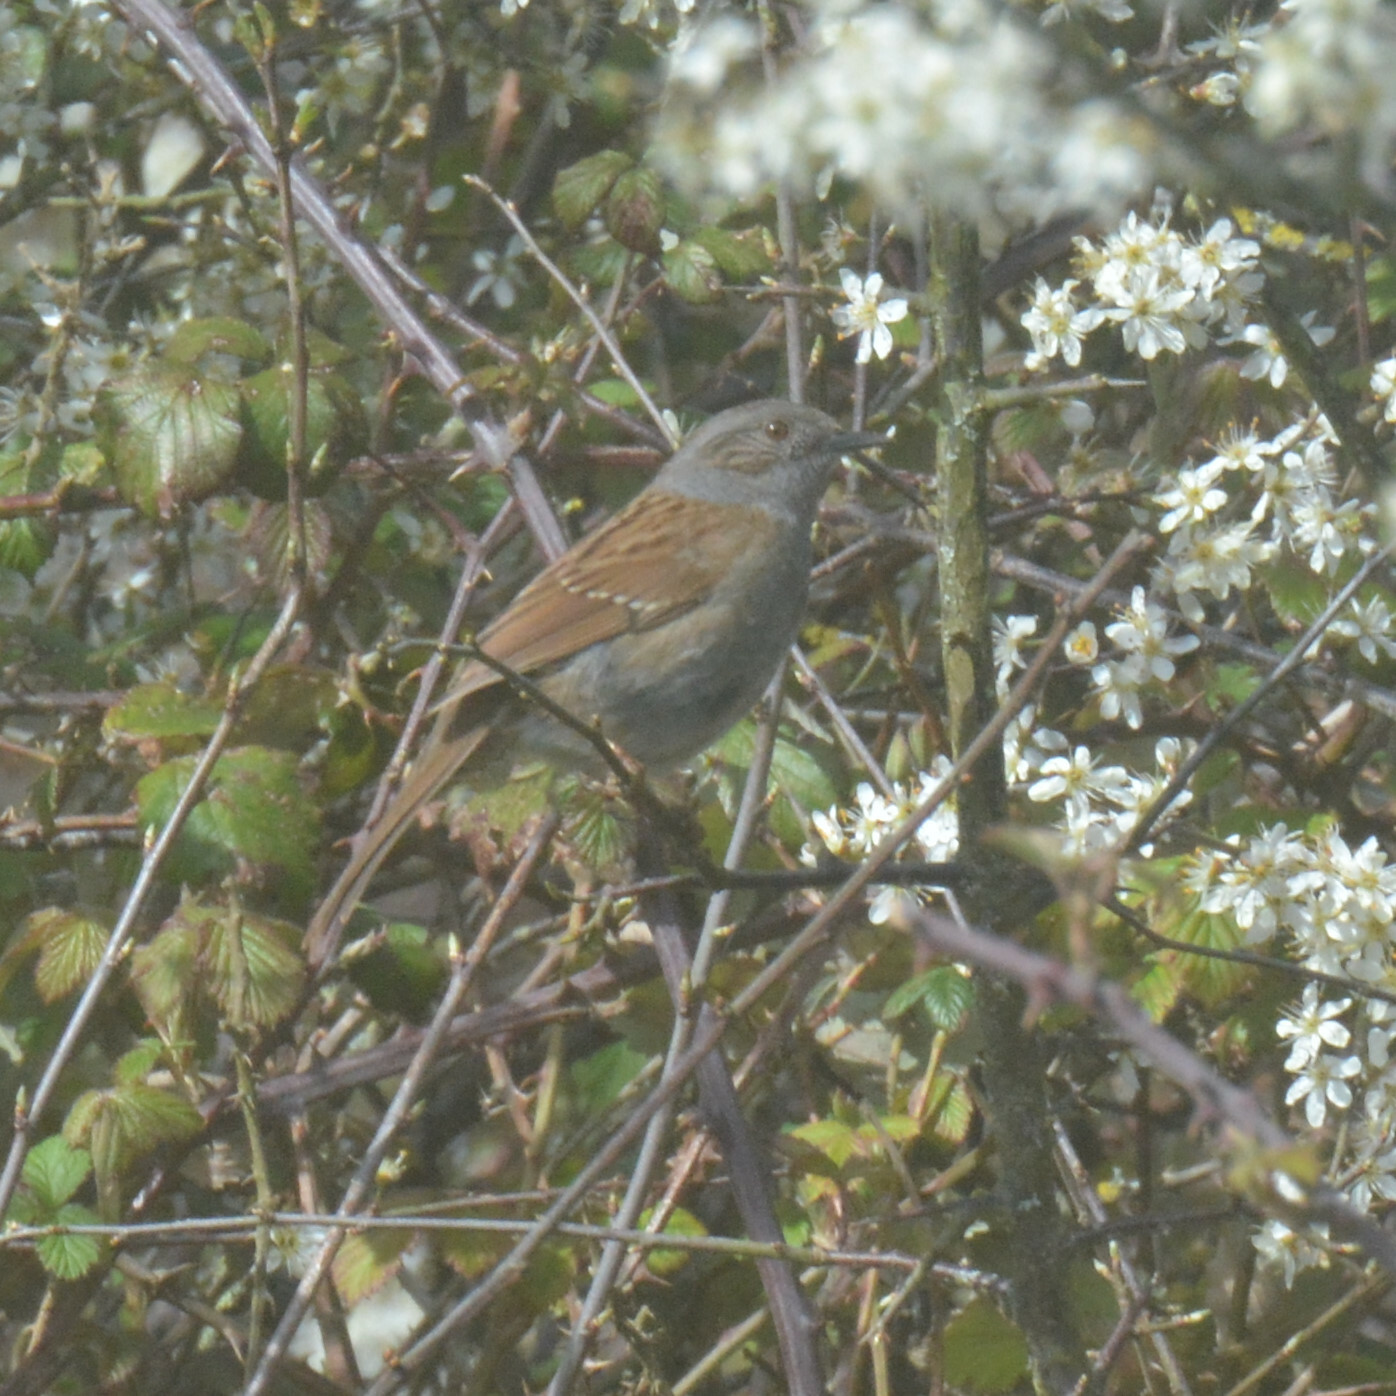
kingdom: Animalia
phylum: Chordata
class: Aves
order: Passeriformes
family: Prunellidae
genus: Prunella
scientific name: Prunella modularis
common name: Dunnock
